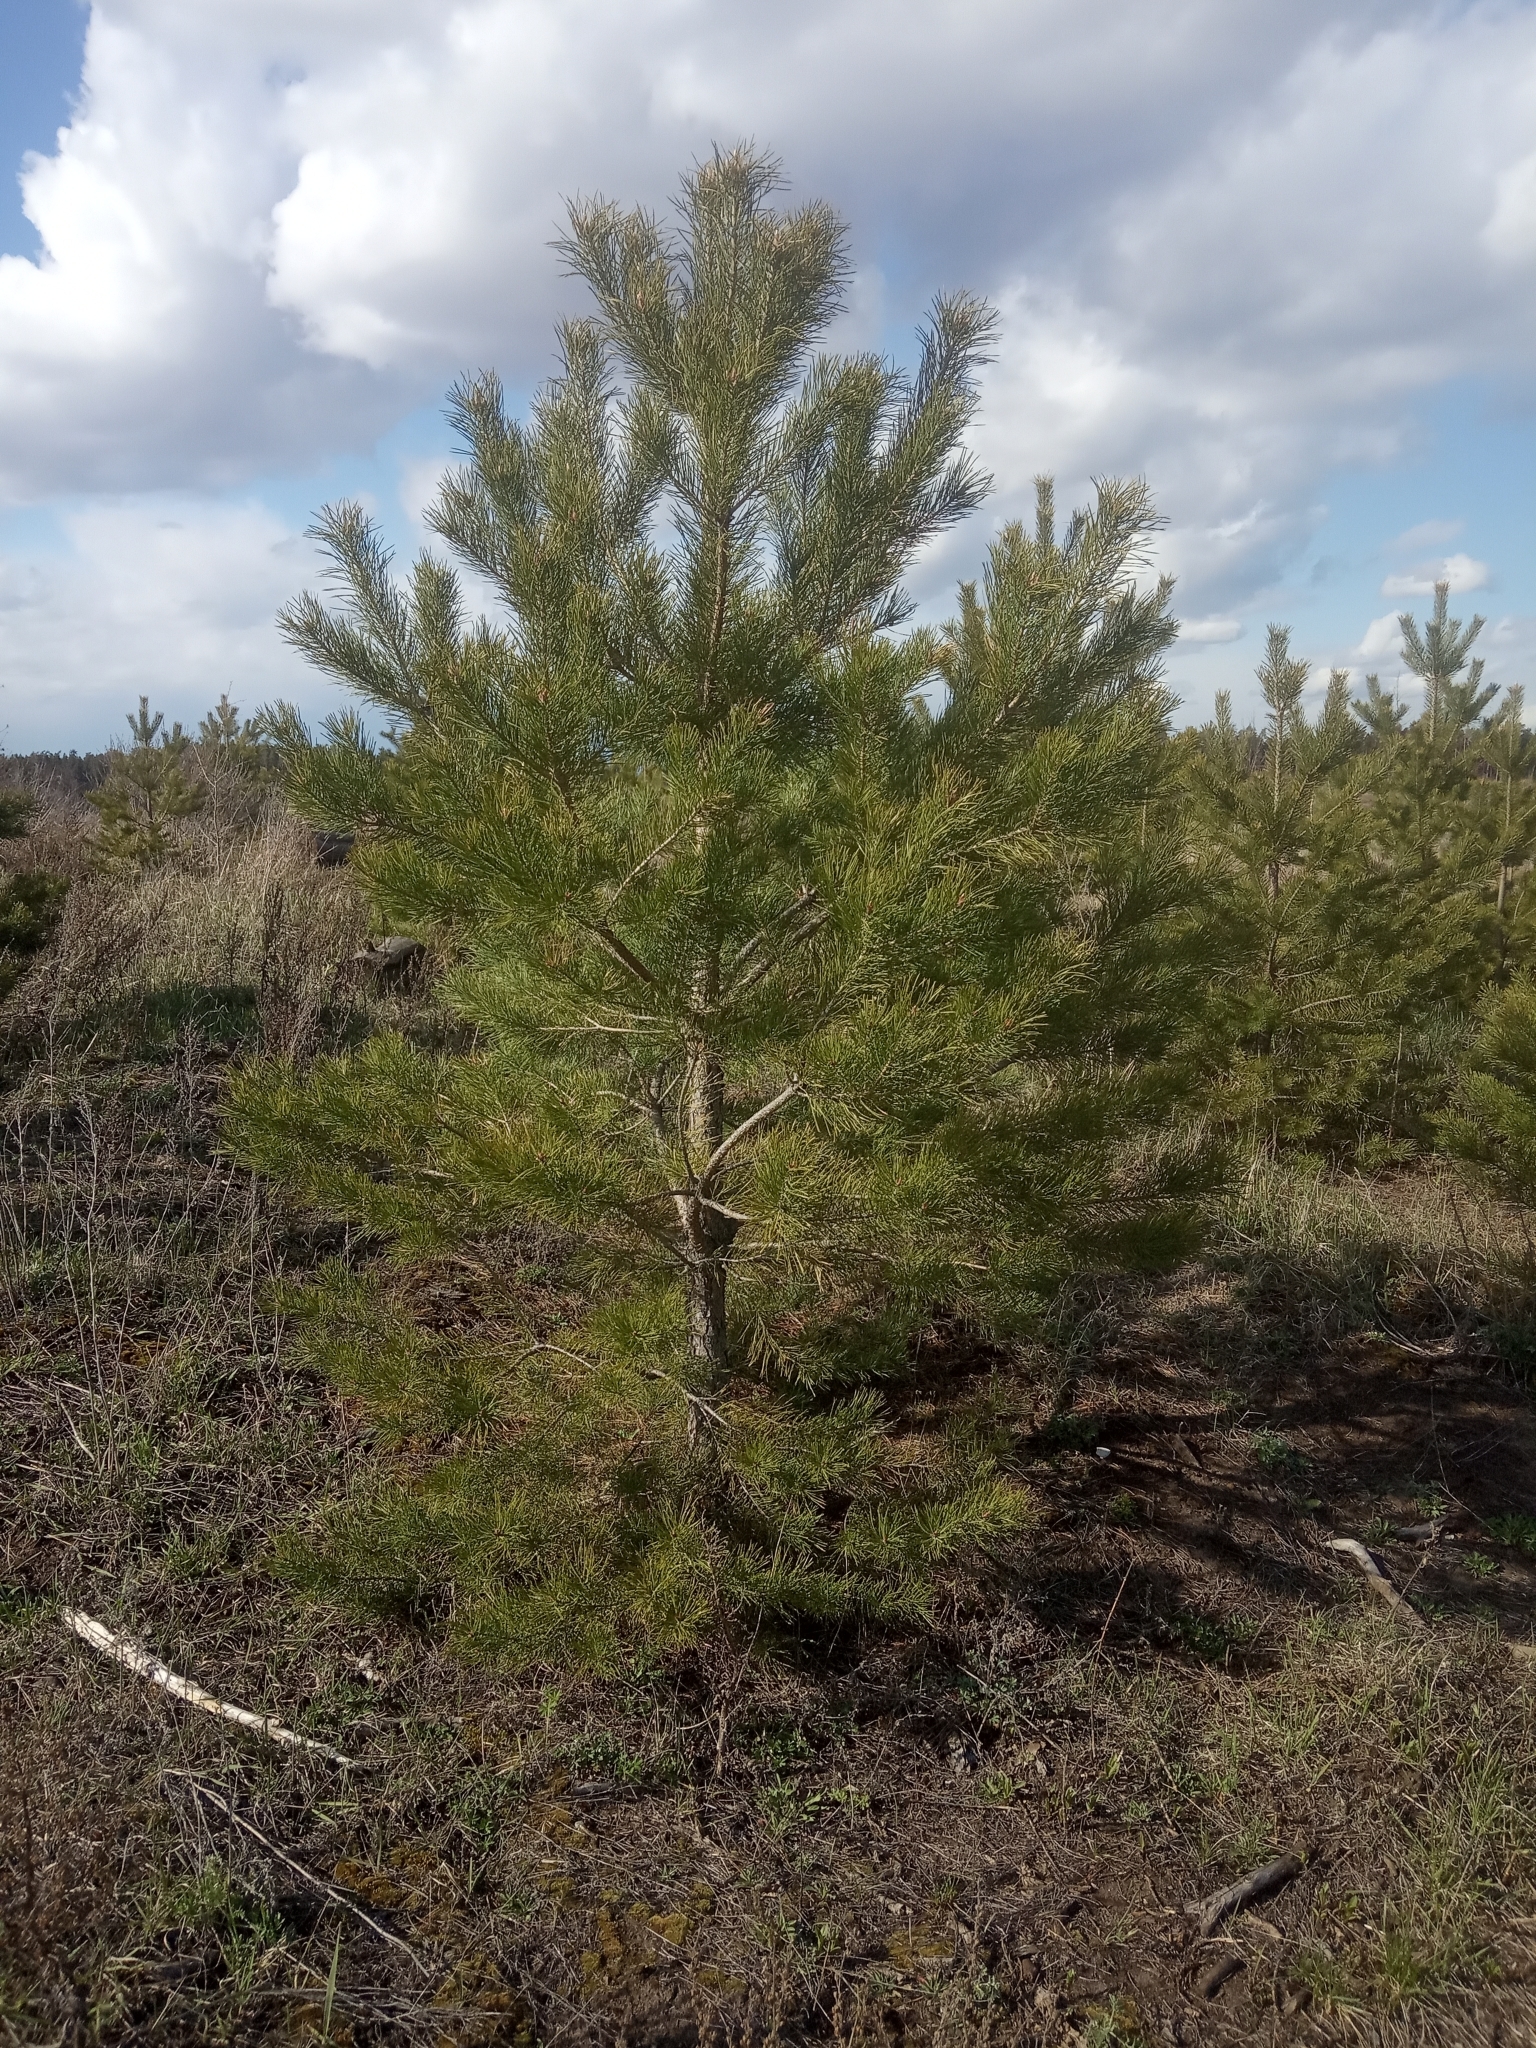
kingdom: Plantae
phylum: Tracheophyta
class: Pinopsida
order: Pinales
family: Pinaceae
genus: Pinus
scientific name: Pinus sylvestris
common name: Scots pine
